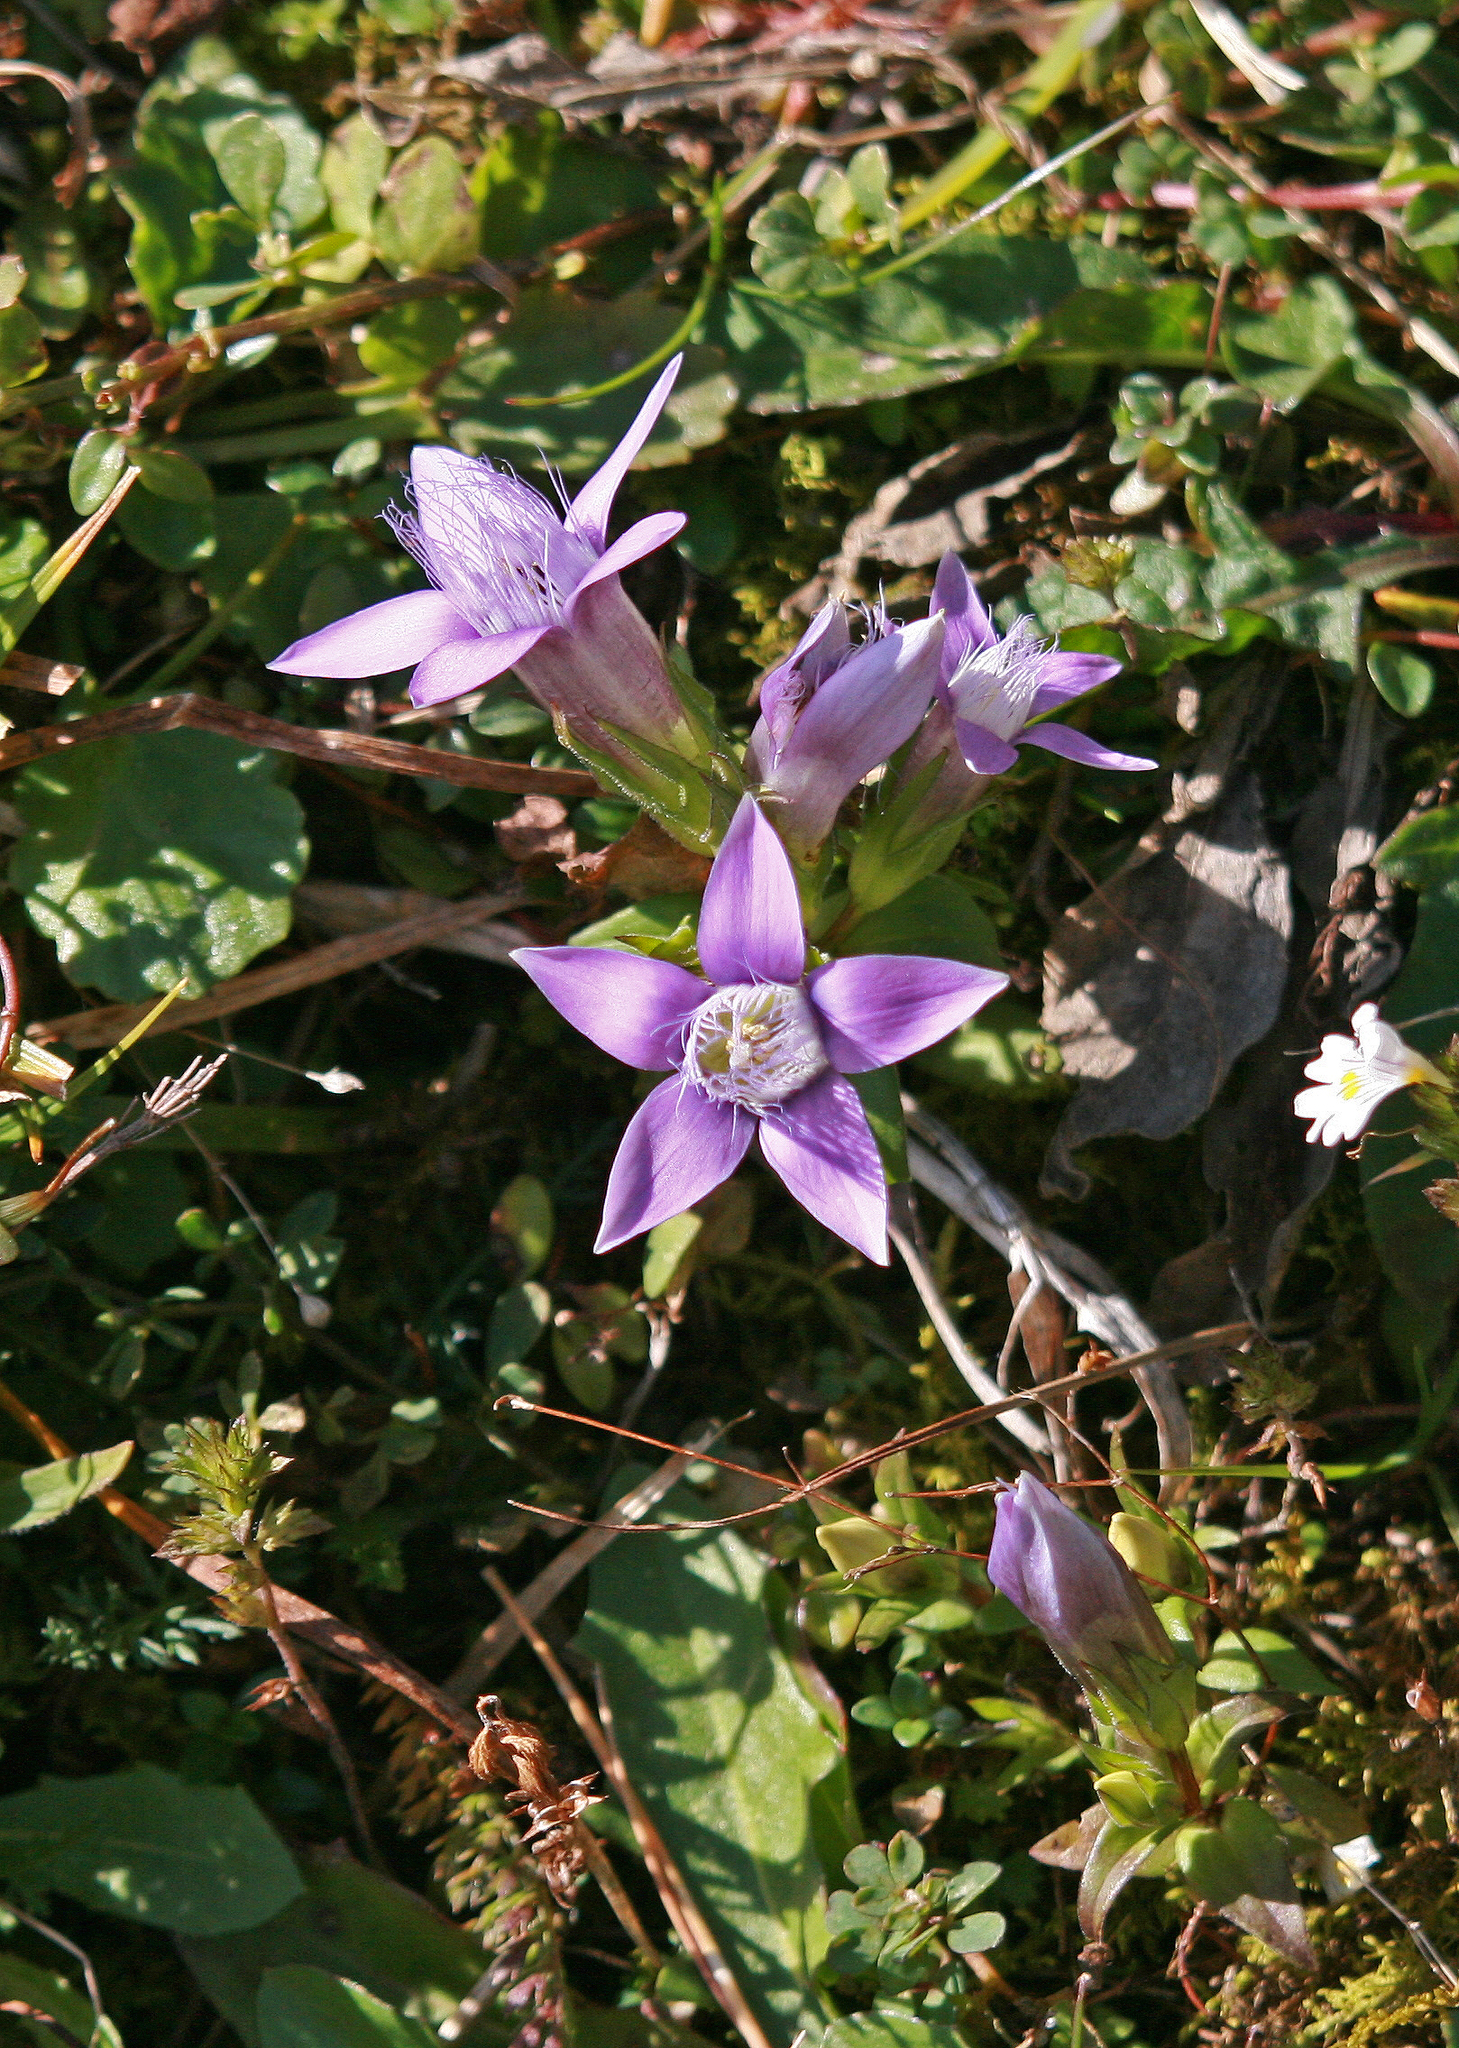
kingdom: Plantae
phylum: Tracheophyta
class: Magnoliopsida
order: Gentianales
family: Gentianaceae
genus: Gentianella
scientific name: Gentianella obtusifolia
